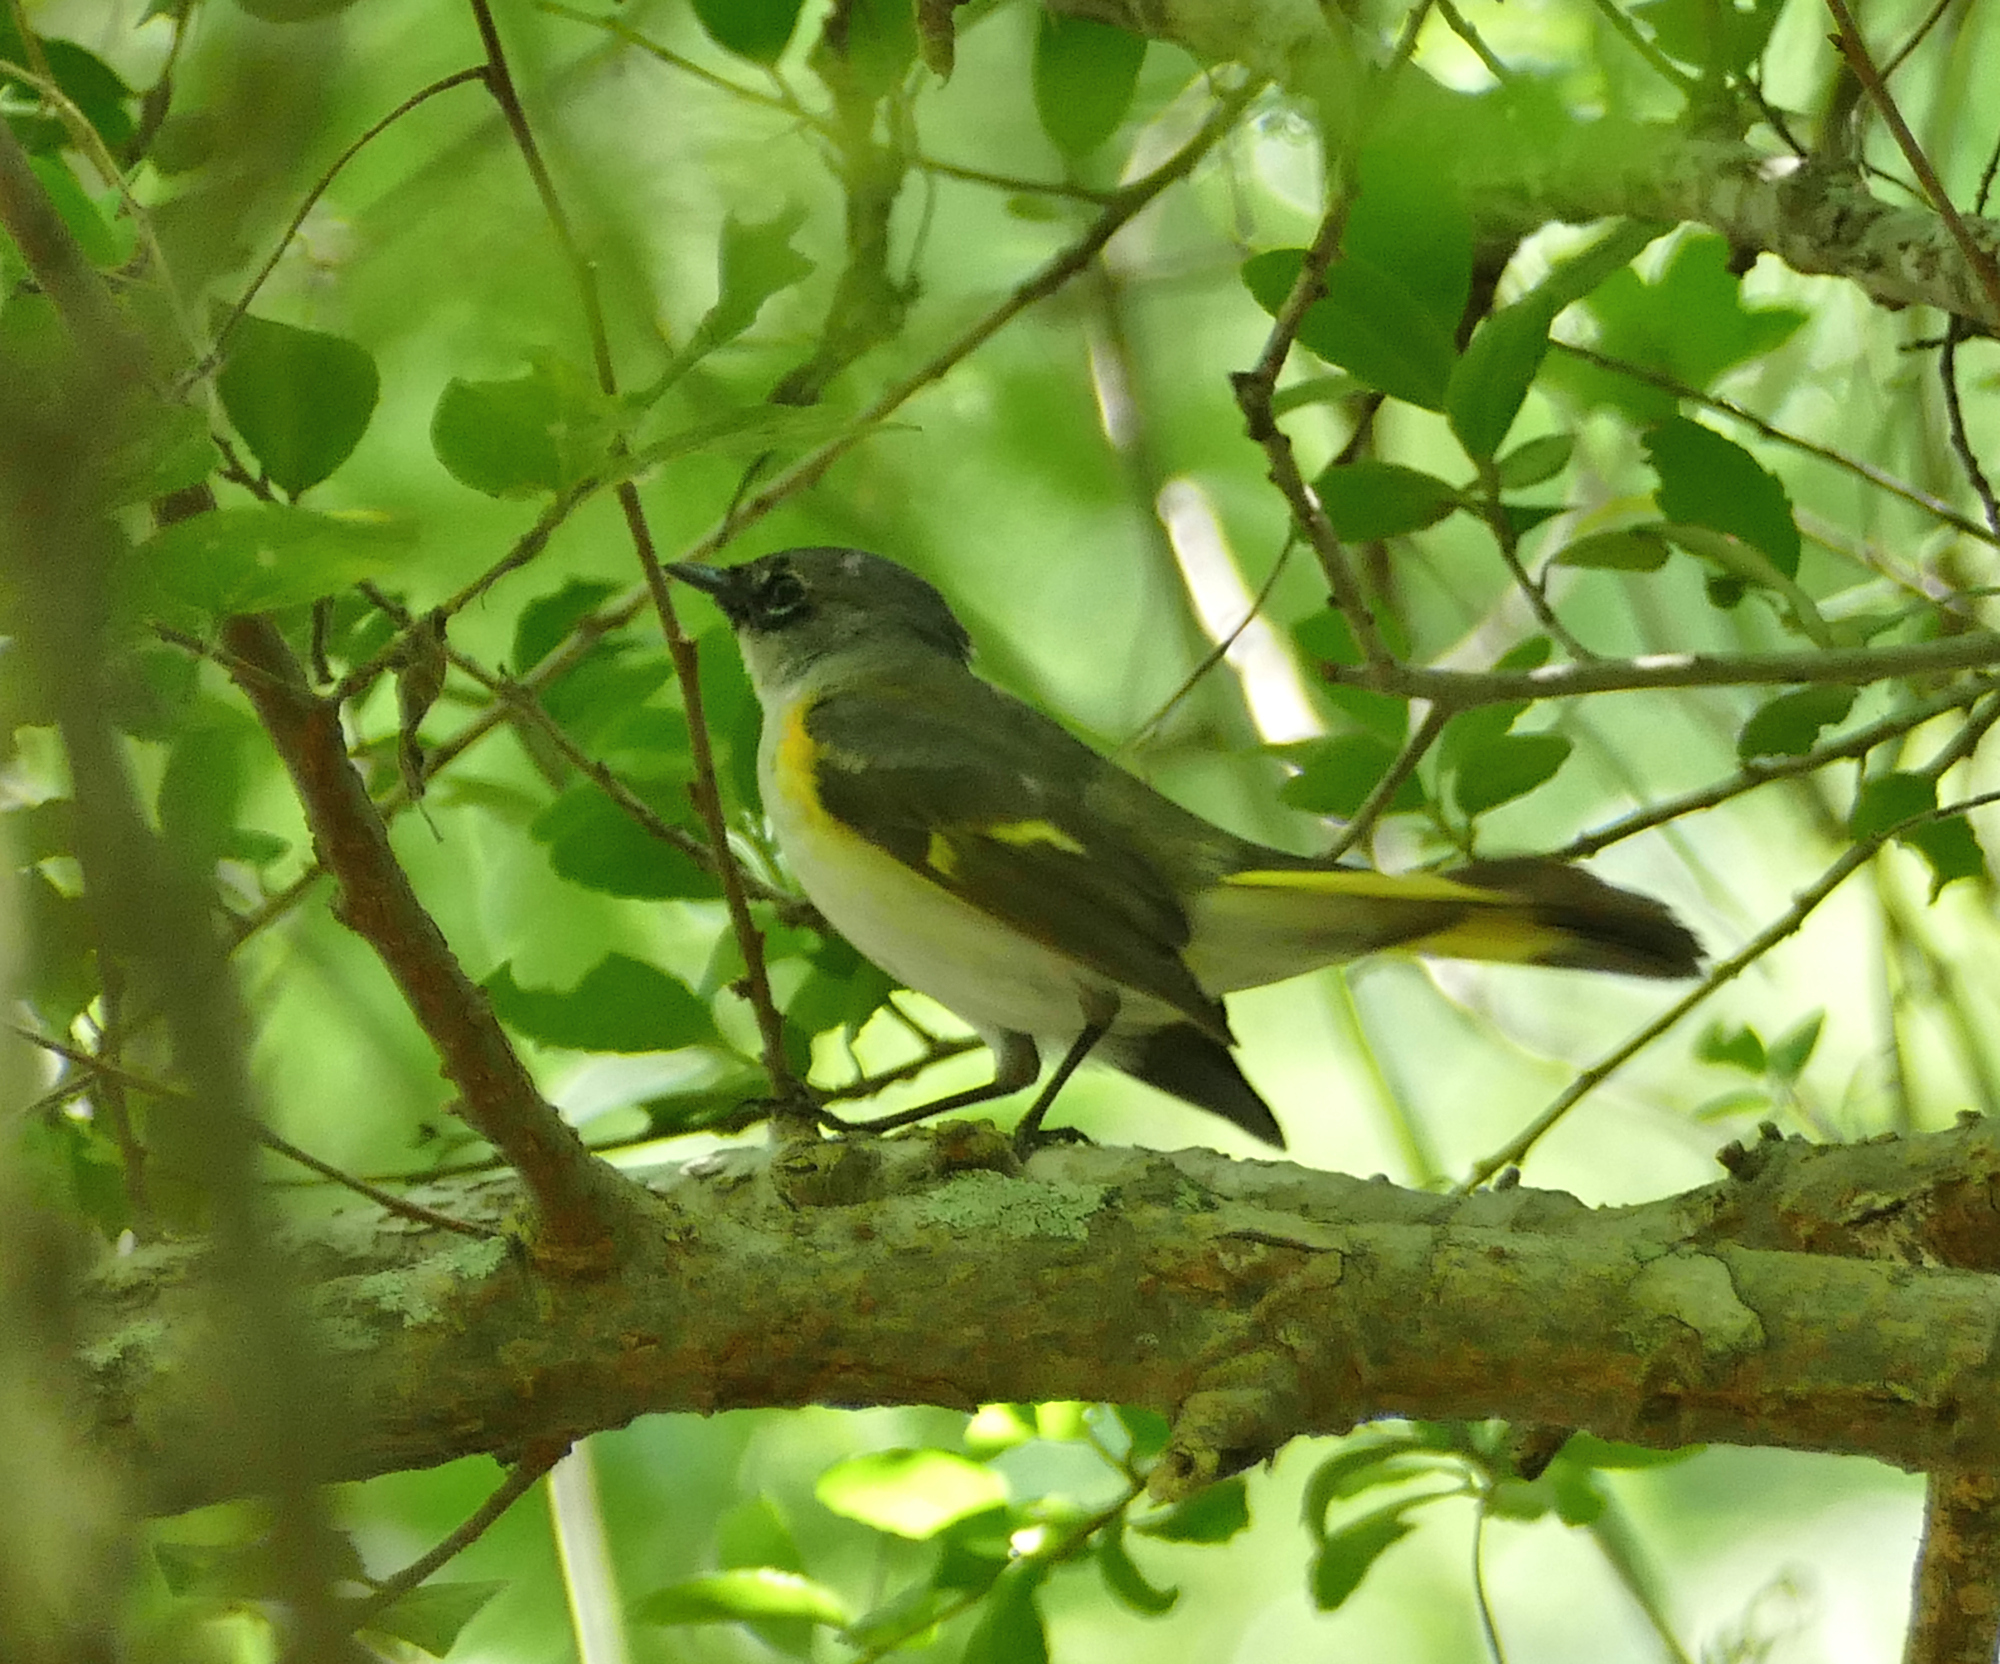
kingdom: Animalia
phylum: Chordata
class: Aves
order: Passeriformes
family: Parulidae
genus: Setophaga
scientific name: Setophaga ruticilla
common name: American redstart
